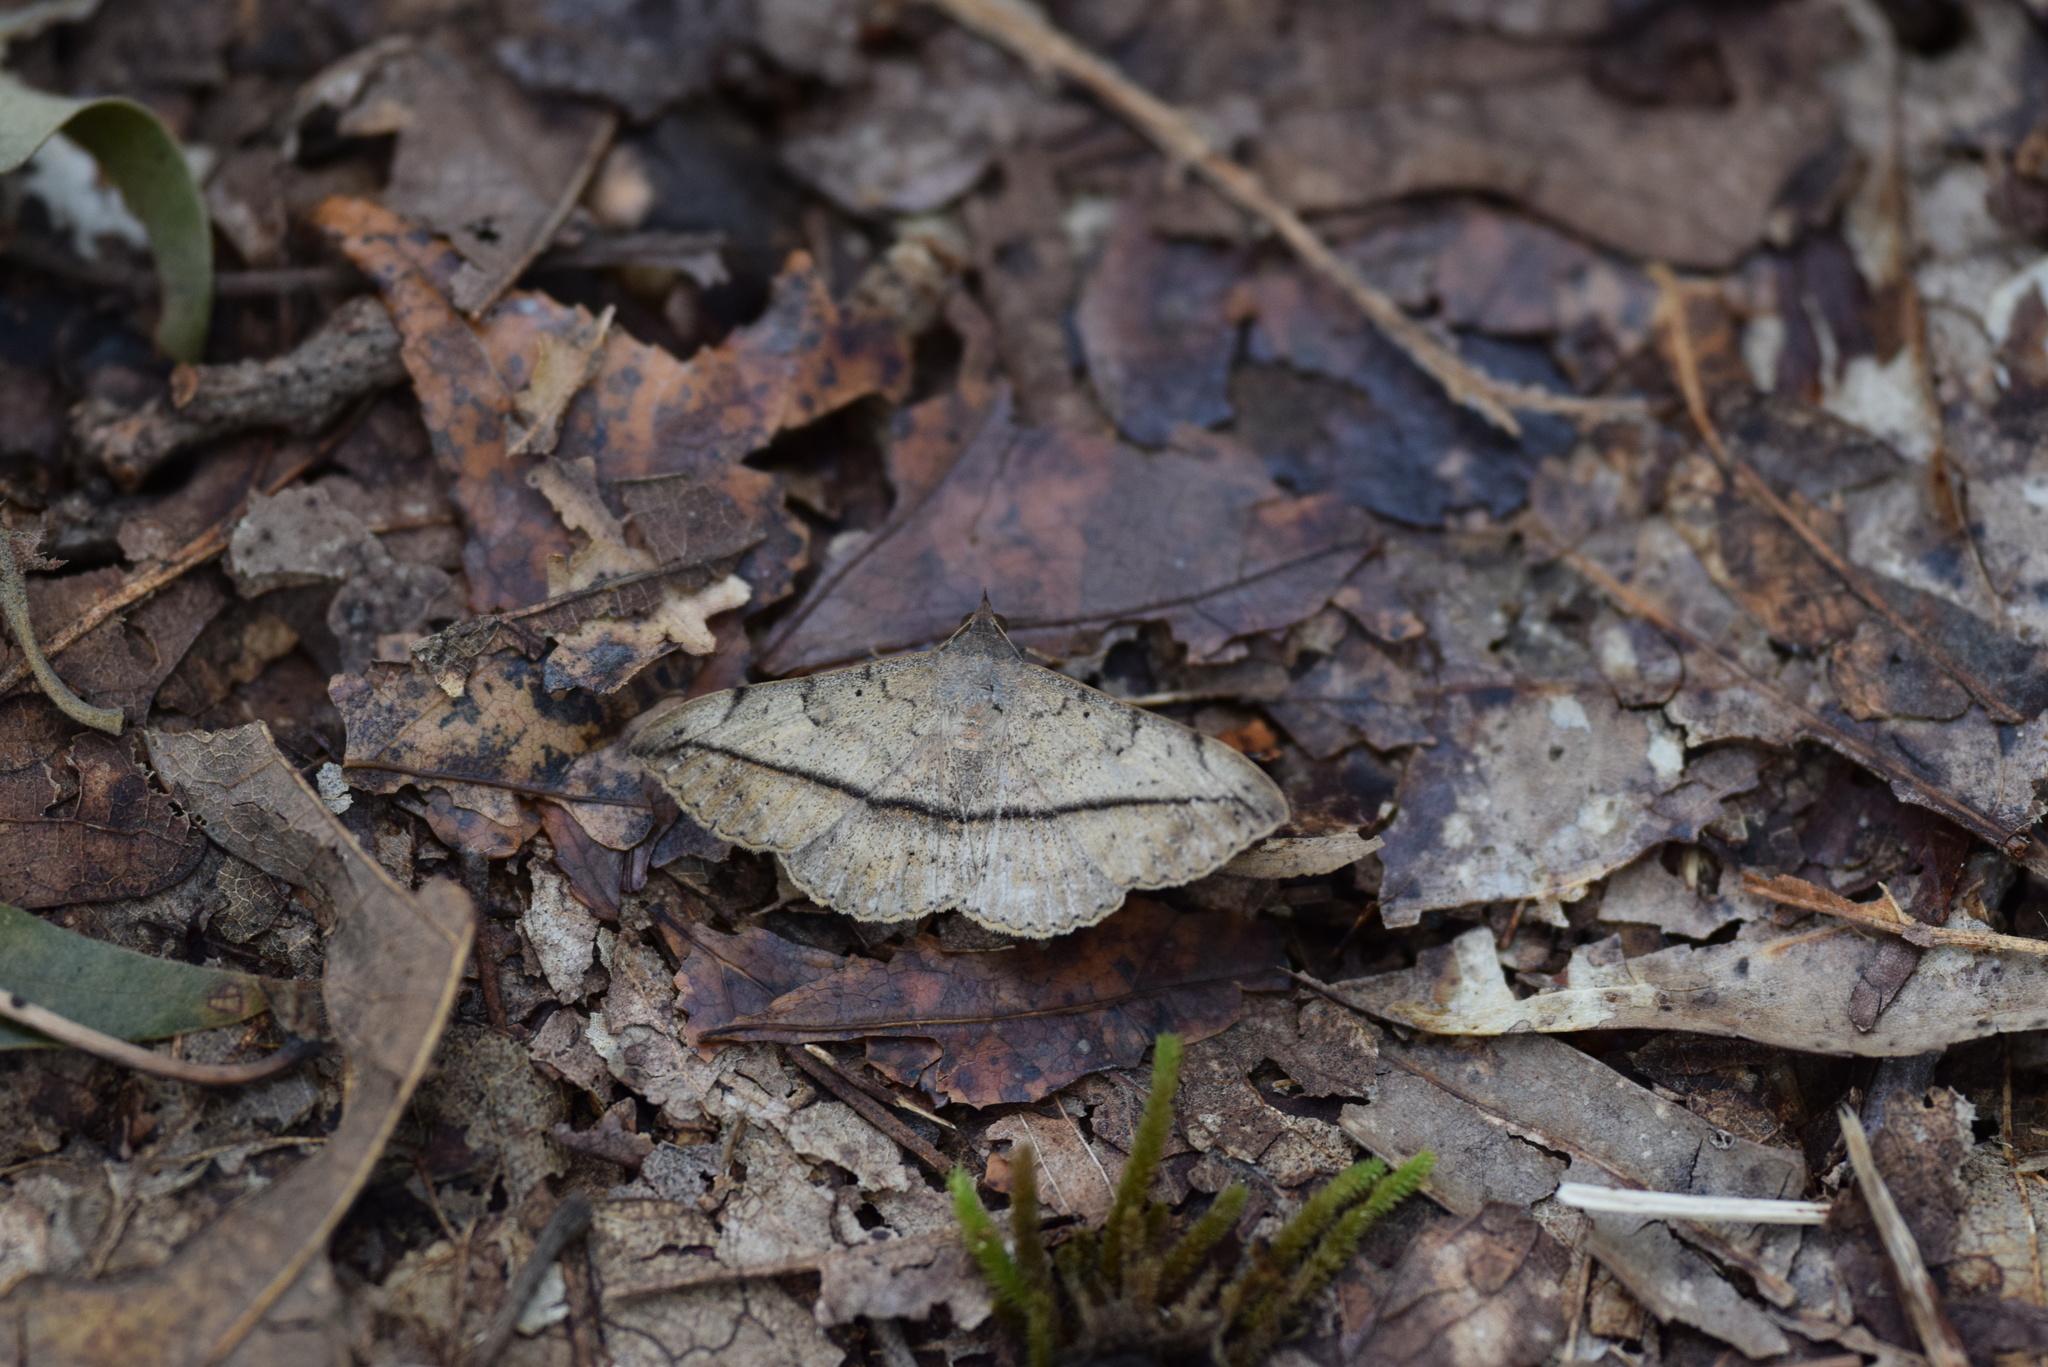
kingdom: Animalia
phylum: Arthropoda
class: Insecta
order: Lepidoptera
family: Erebidae
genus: Anticarsia
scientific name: Anticarsia gemmatalis
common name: Cutworm moth
